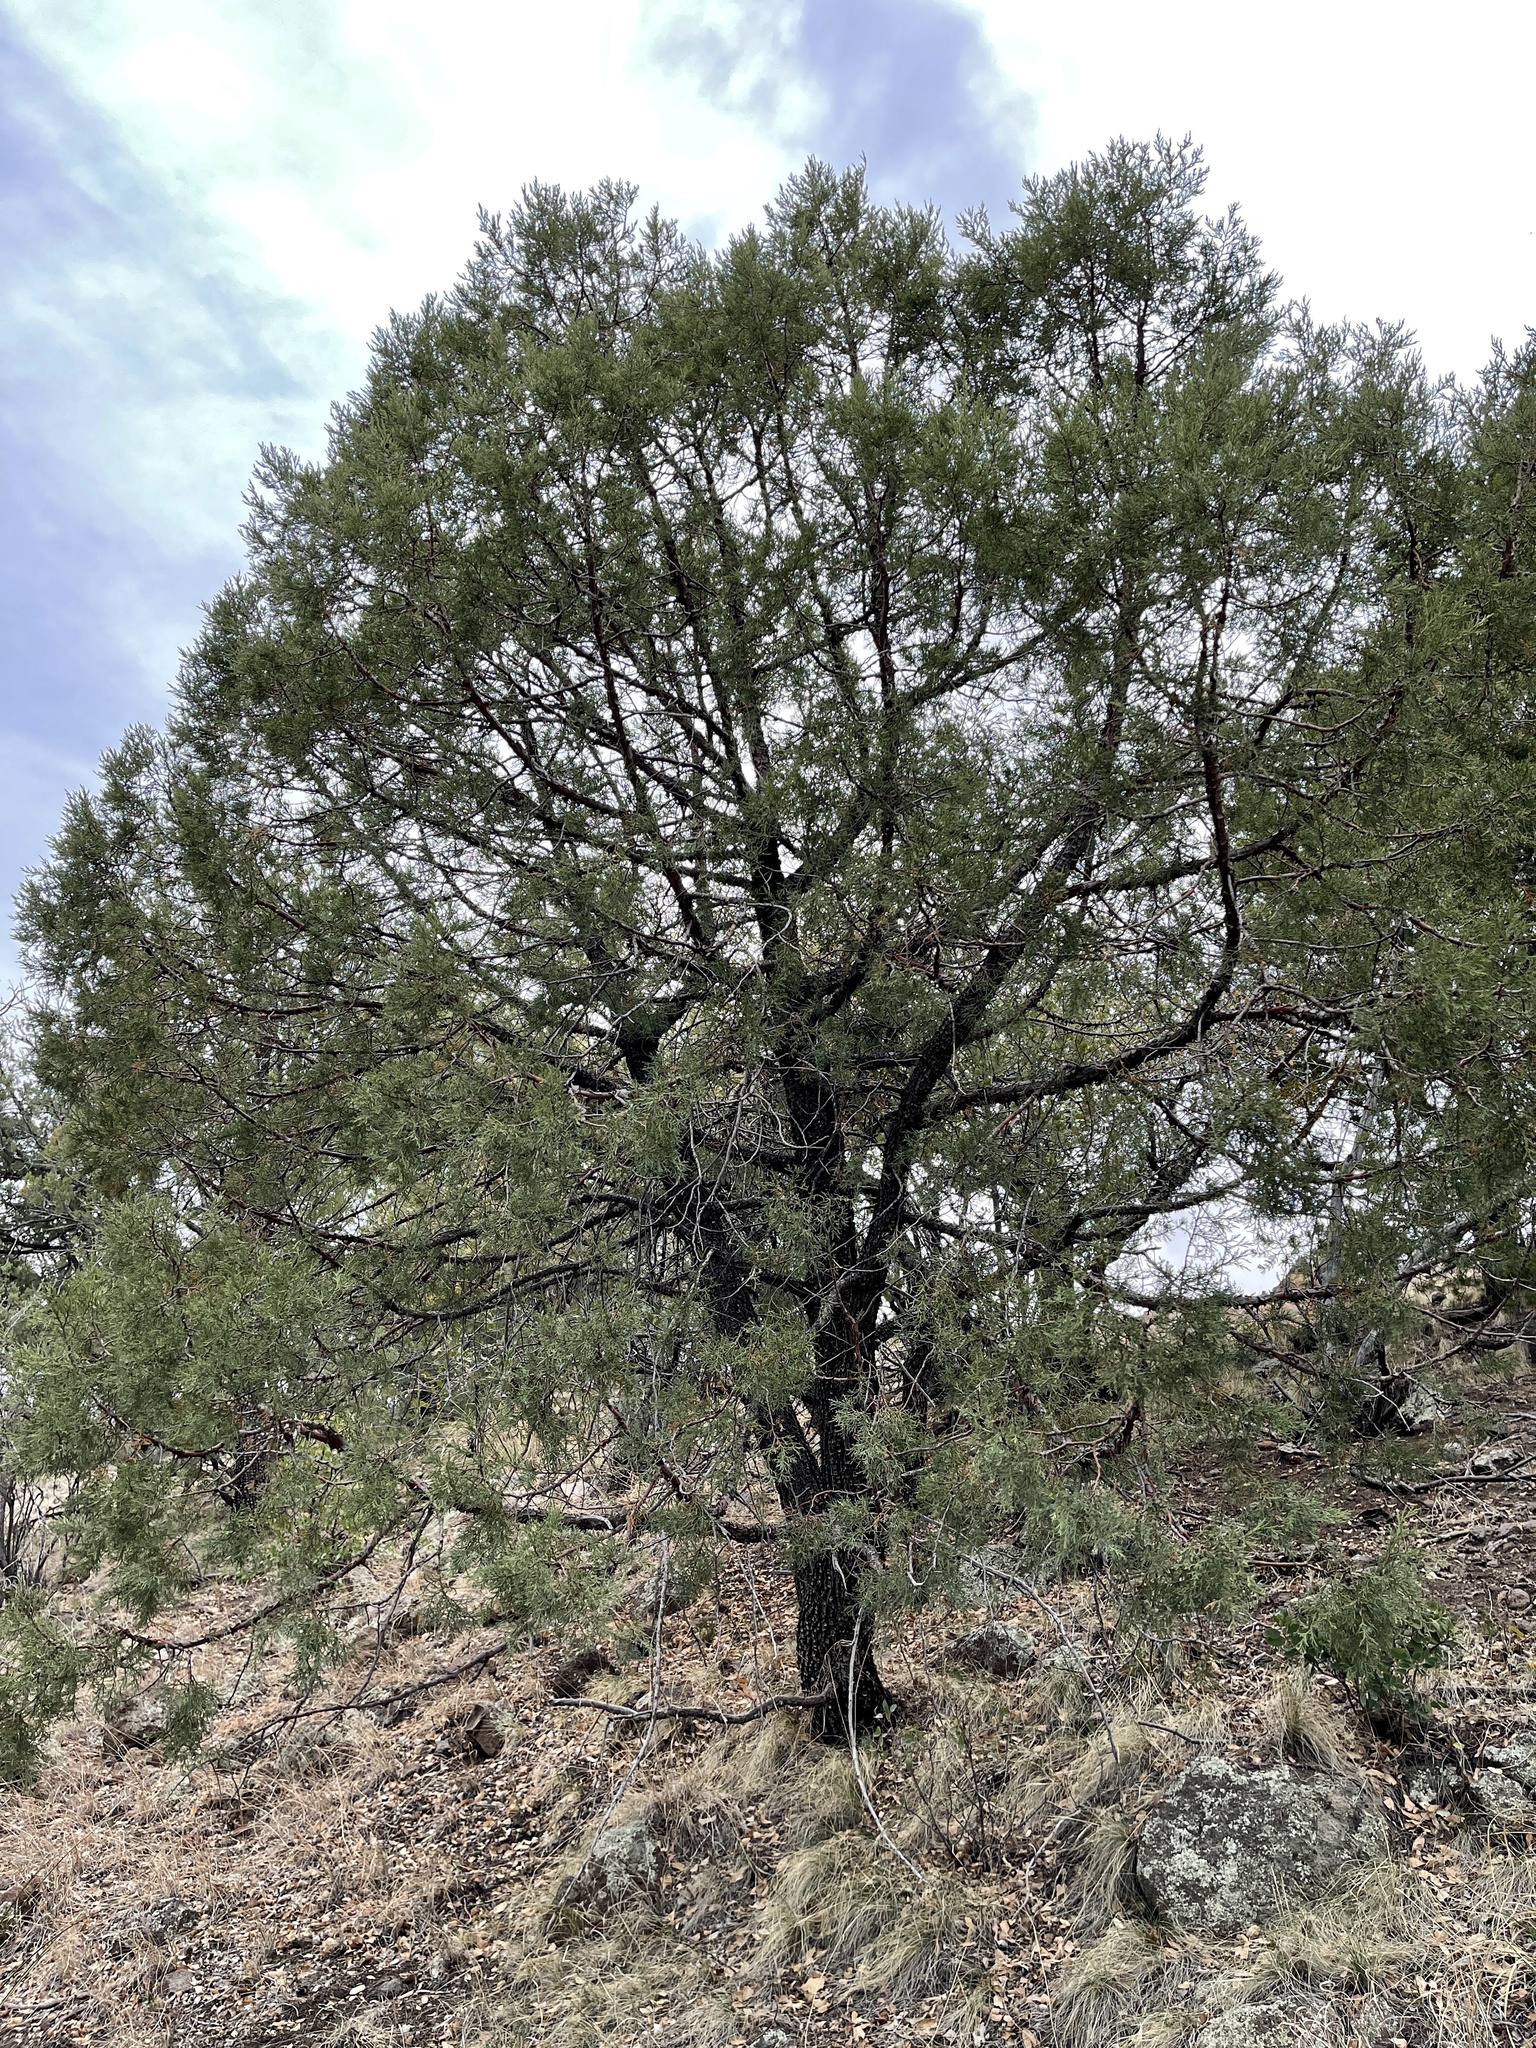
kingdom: Plantae
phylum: Tracheophyta
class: Pinopsida
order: Pinales
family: Cupressaceae
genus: Juniperus
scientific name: Juniperus deppeana
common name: Alligator juniper
